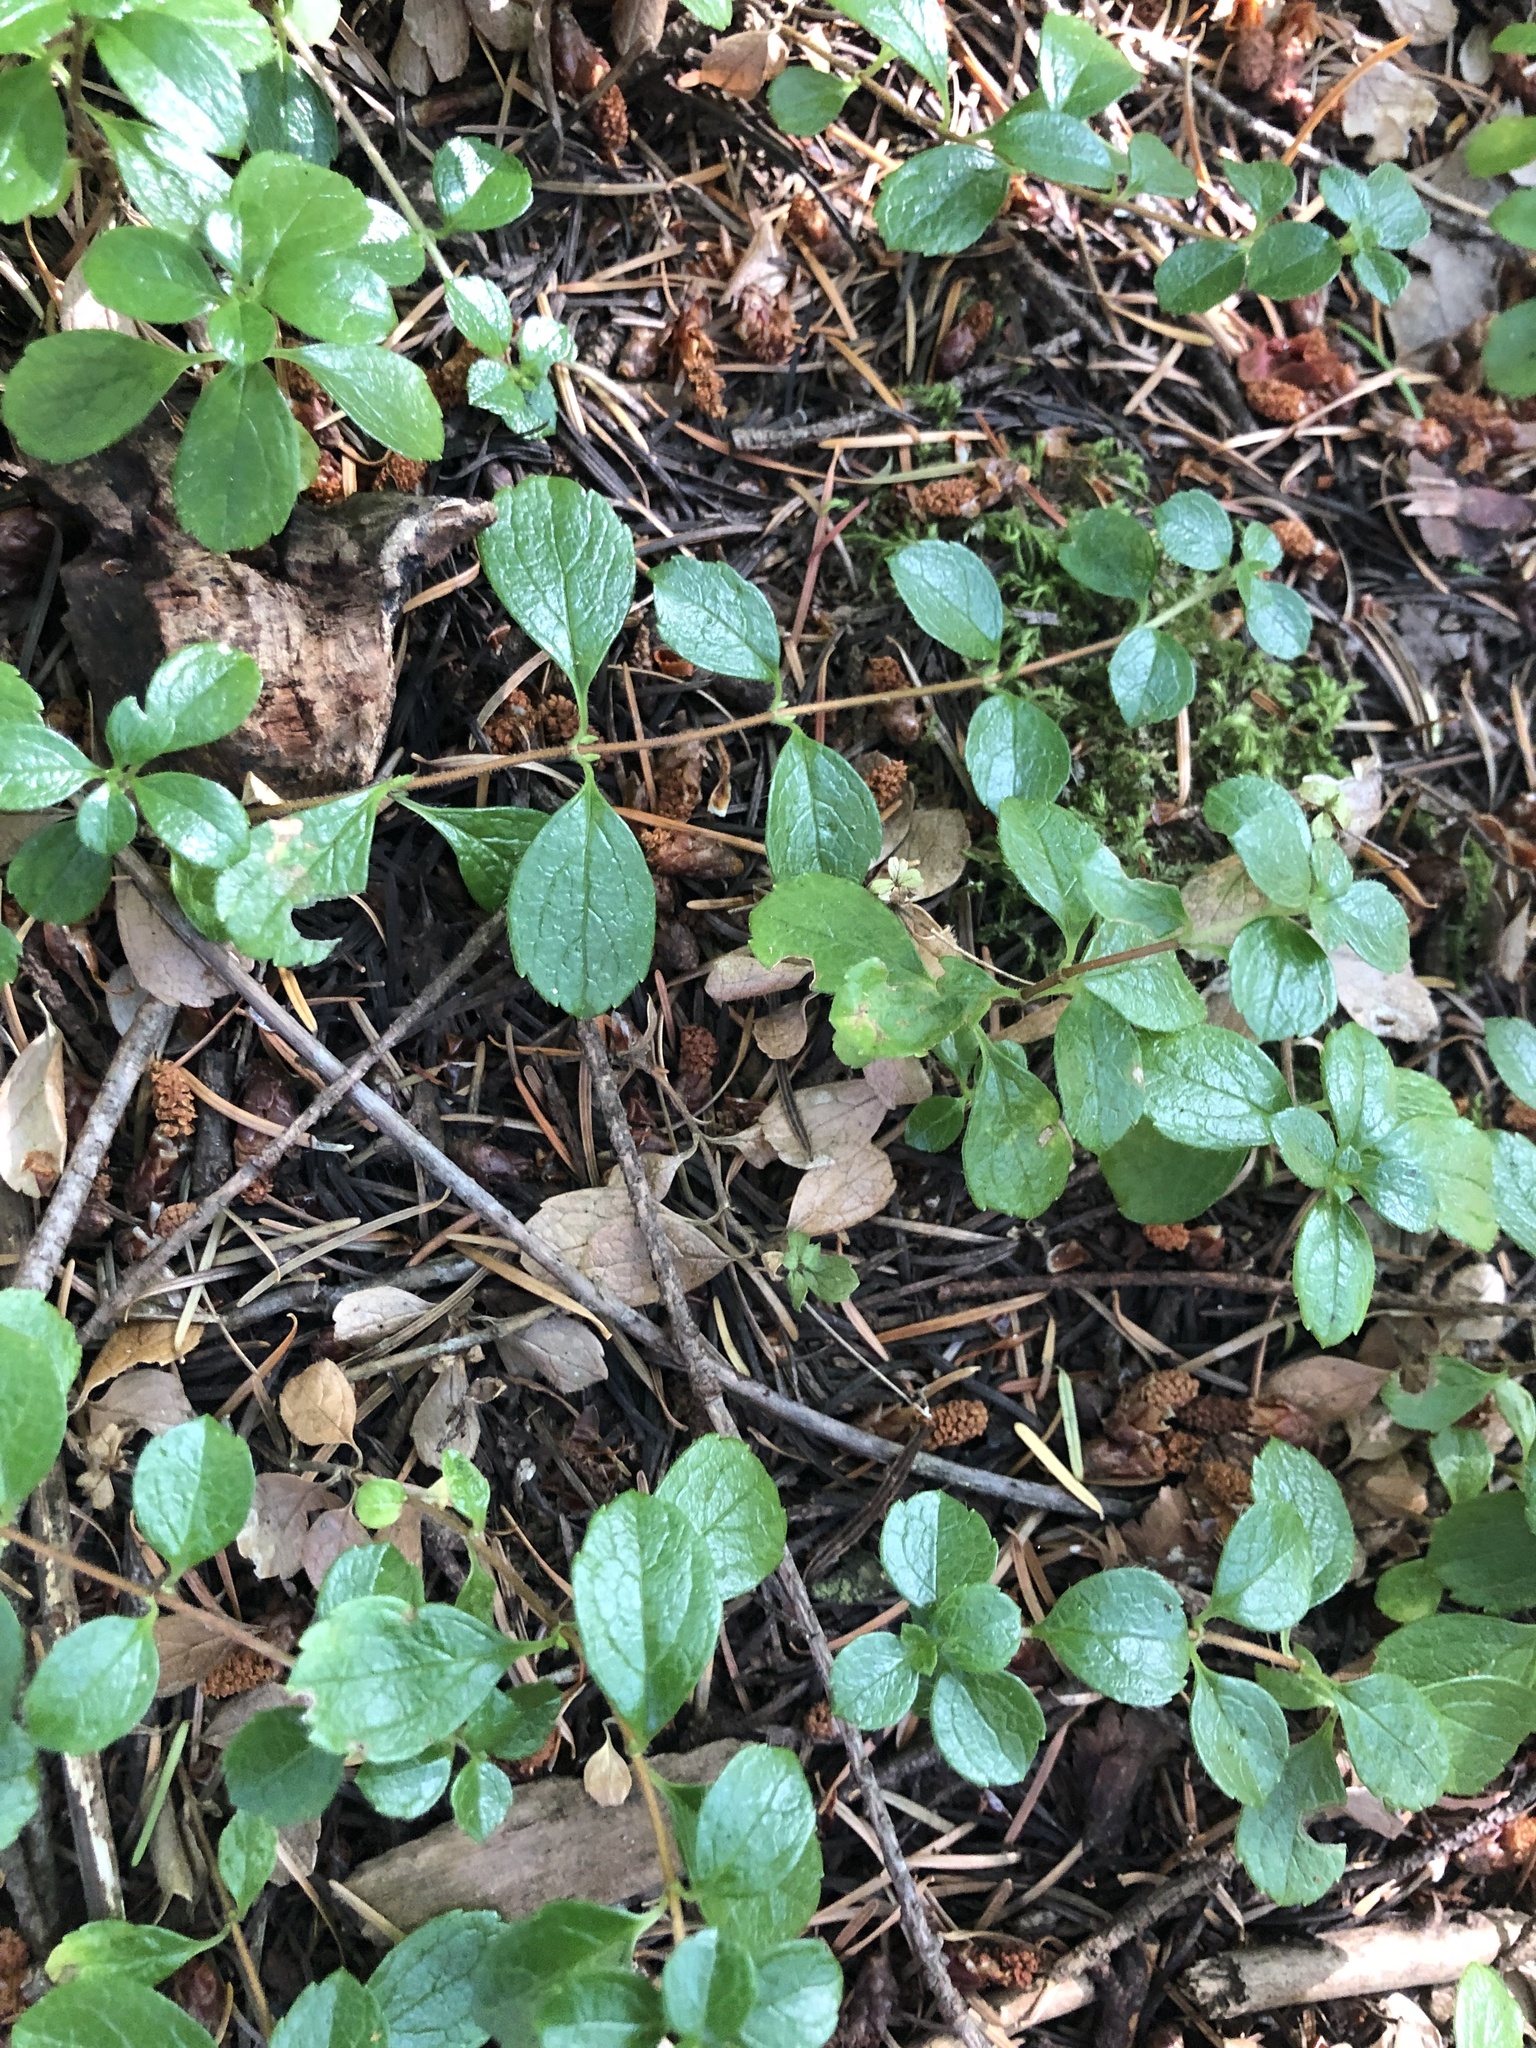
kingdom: Plantae
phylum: Tracheophyta
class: Magnoliopsida
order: Dipsacales
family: Caprifoliaceae
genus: Linnaea
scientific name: Linnaea borealis
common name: Twinflower
